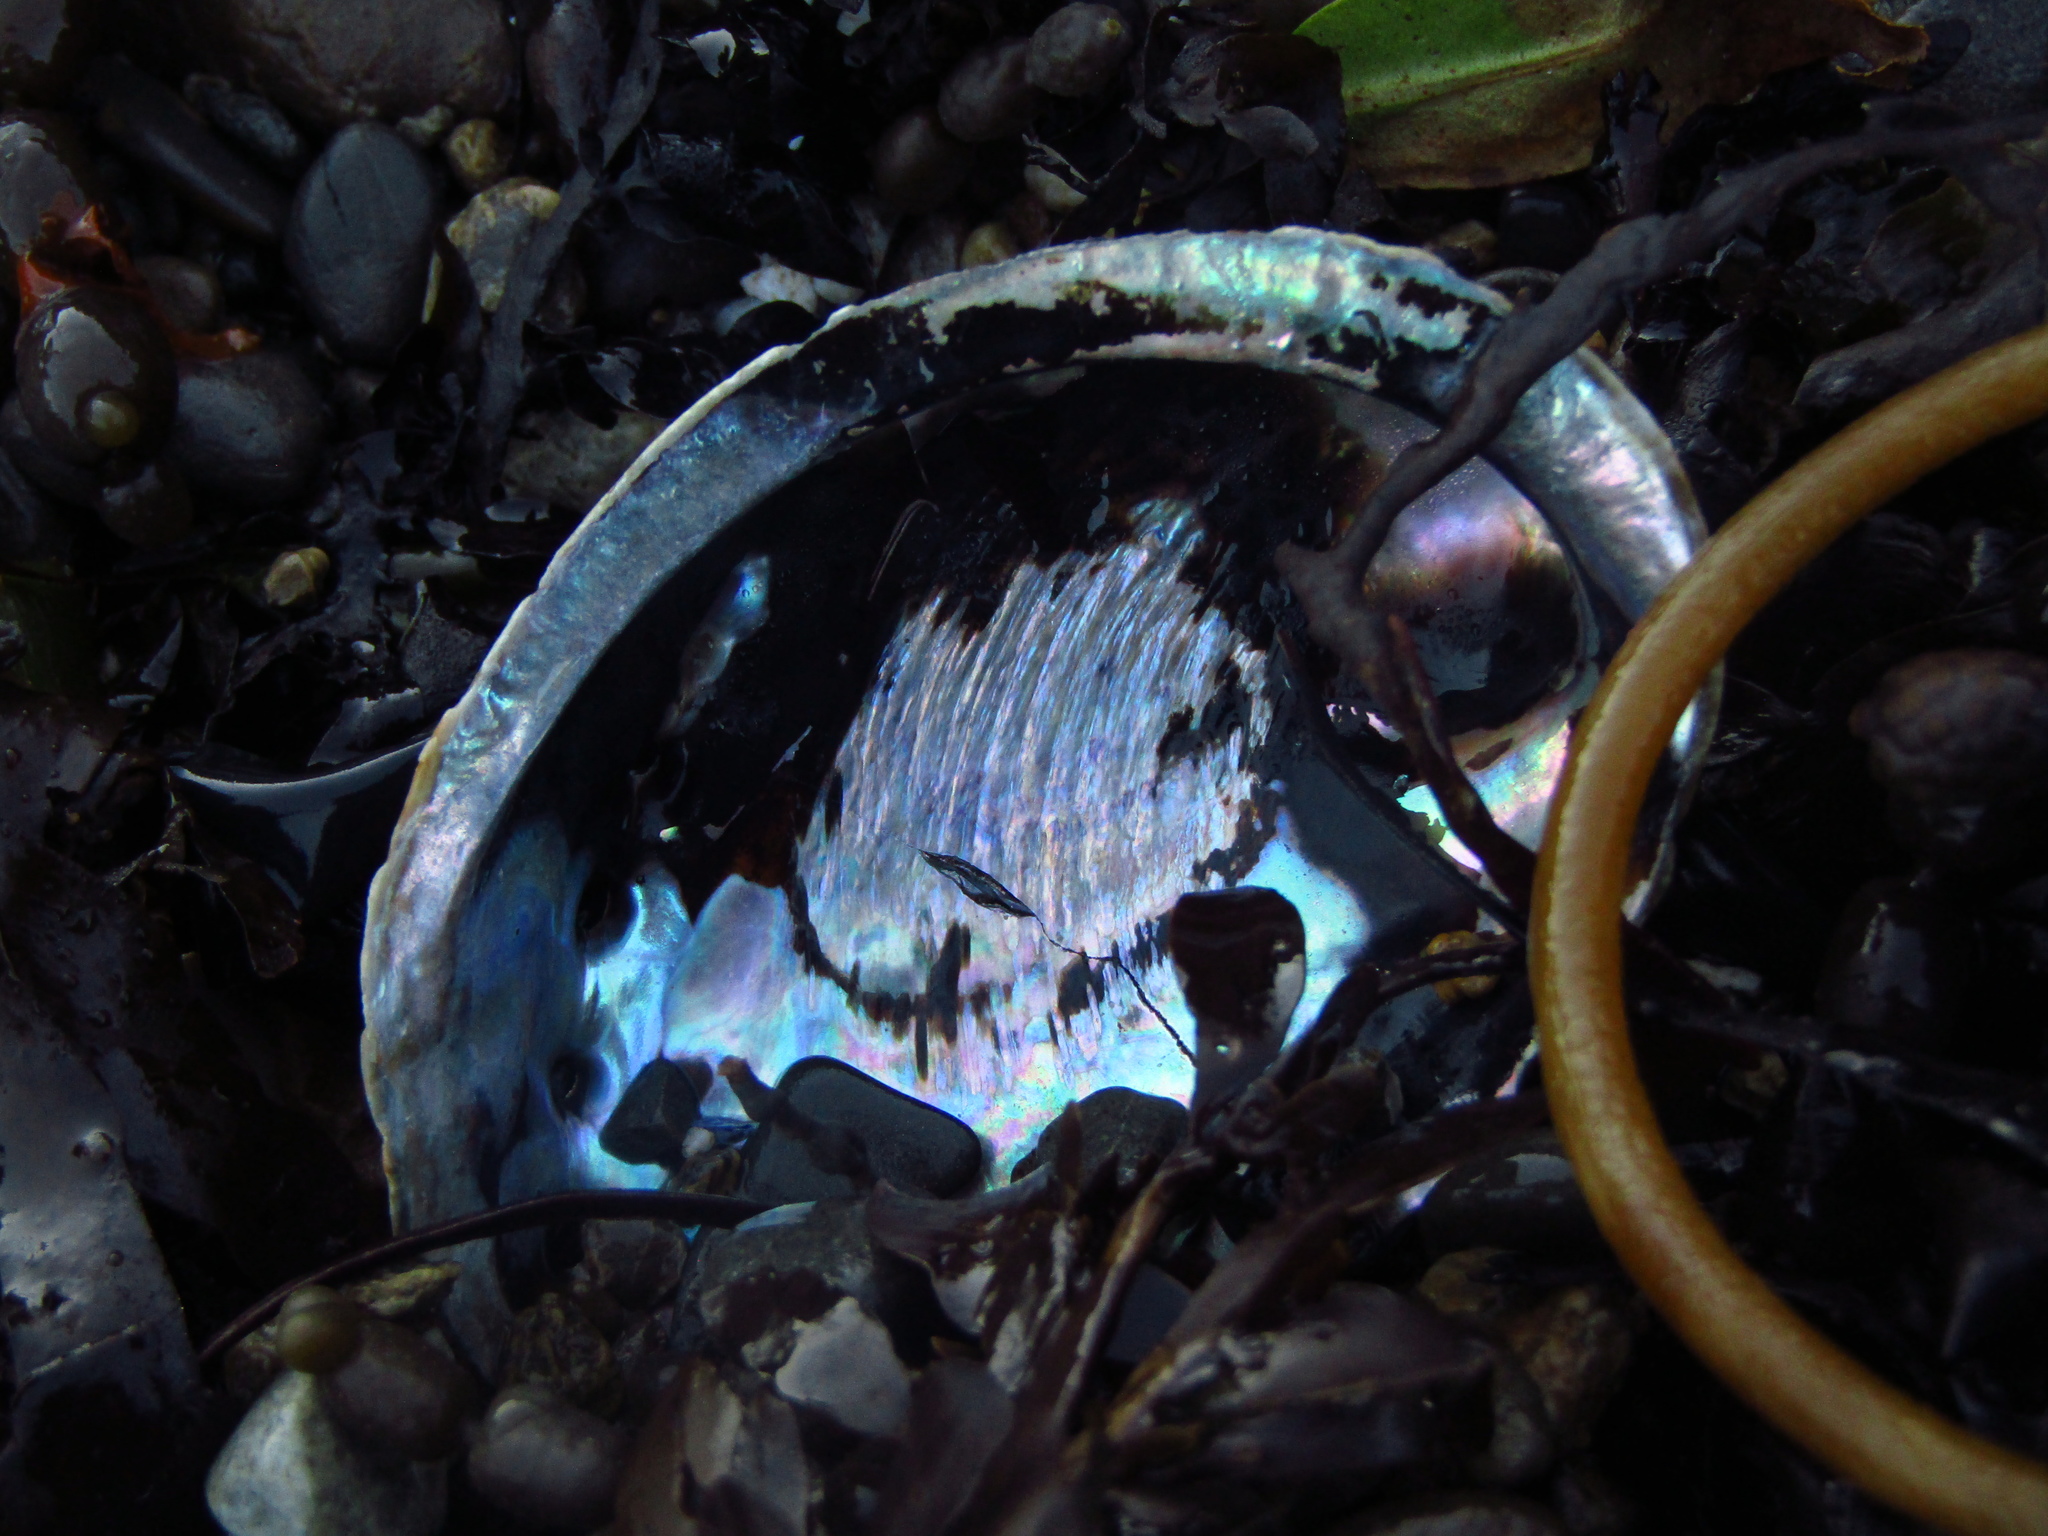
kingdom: Animalia
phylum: Mollusca
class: Gastropoda
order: Lepetellida
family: Haliotidae
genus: Haliotis
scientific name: Haliotis iris
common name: Abalone
